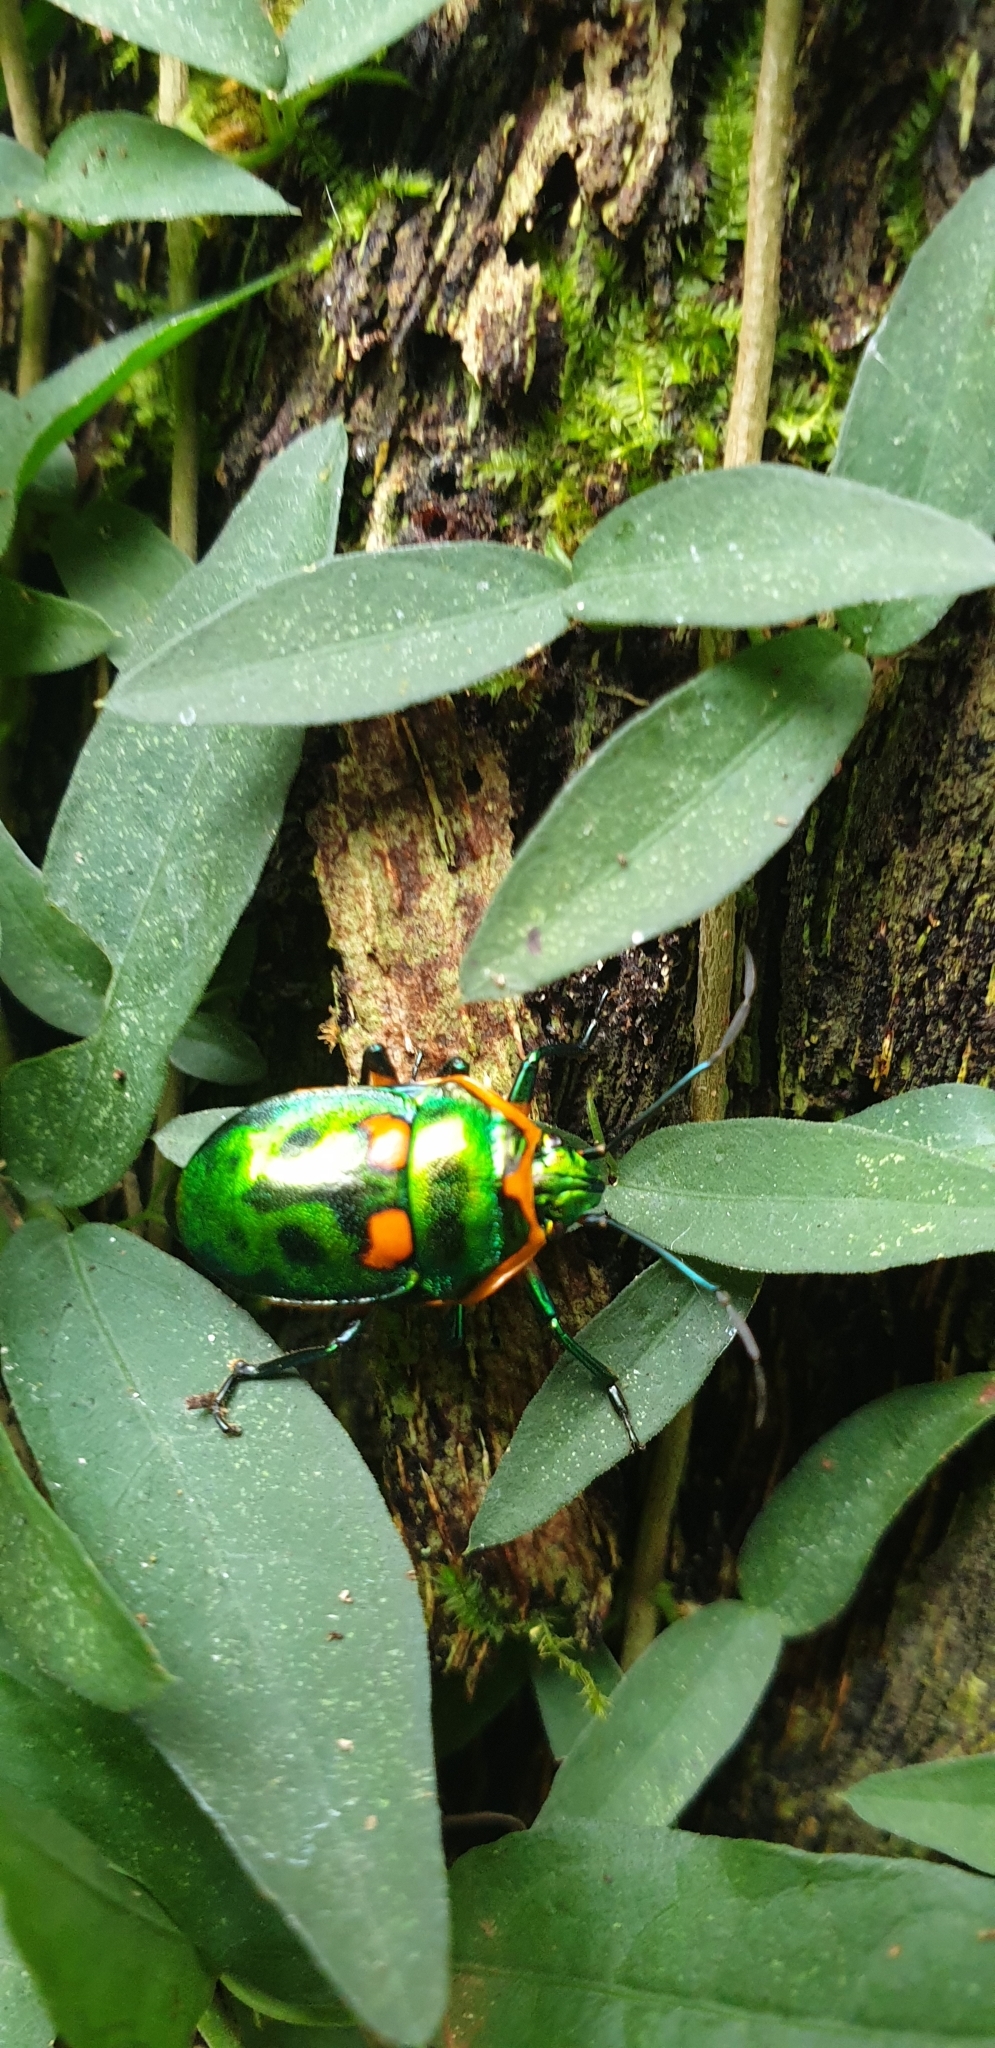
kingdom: Animalia
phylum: Arthropoda
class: Insecta
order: Hemiptera
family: Scutelleridae
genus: Scutiphora
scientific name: Scutiphora pedicellata
